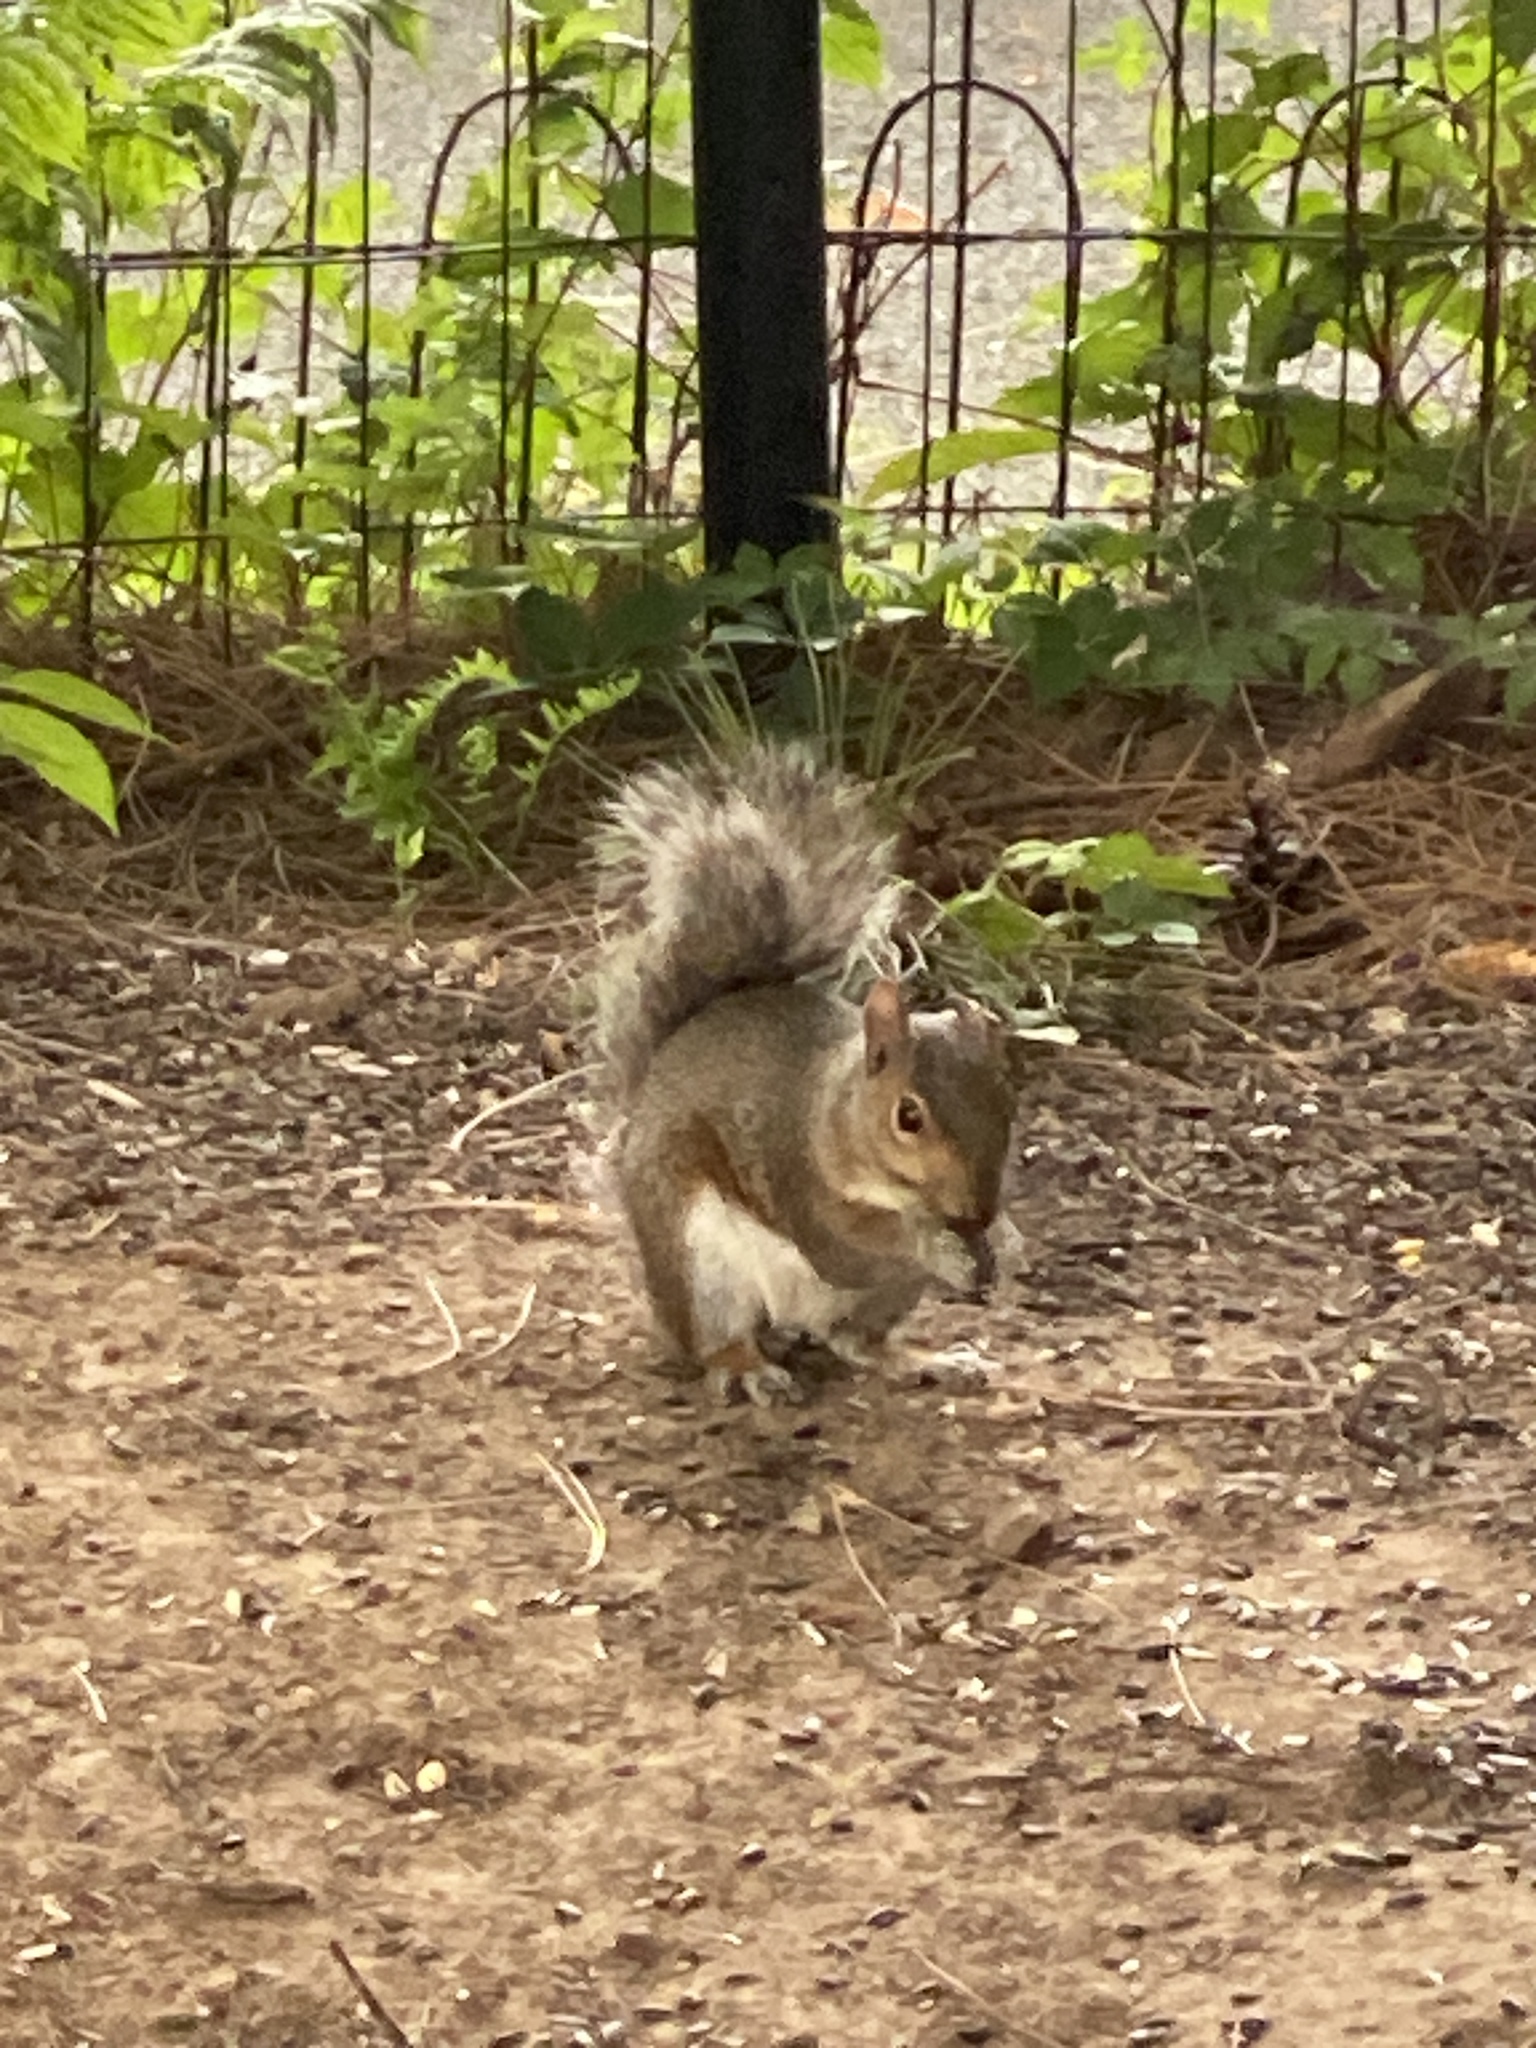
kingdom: Animalia
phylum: Chordata
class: Mammalia
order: Rodentia
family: Sciuridae
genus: Sciurus
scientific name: Sciurus carolinensis
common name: Eastern gray squirrel
